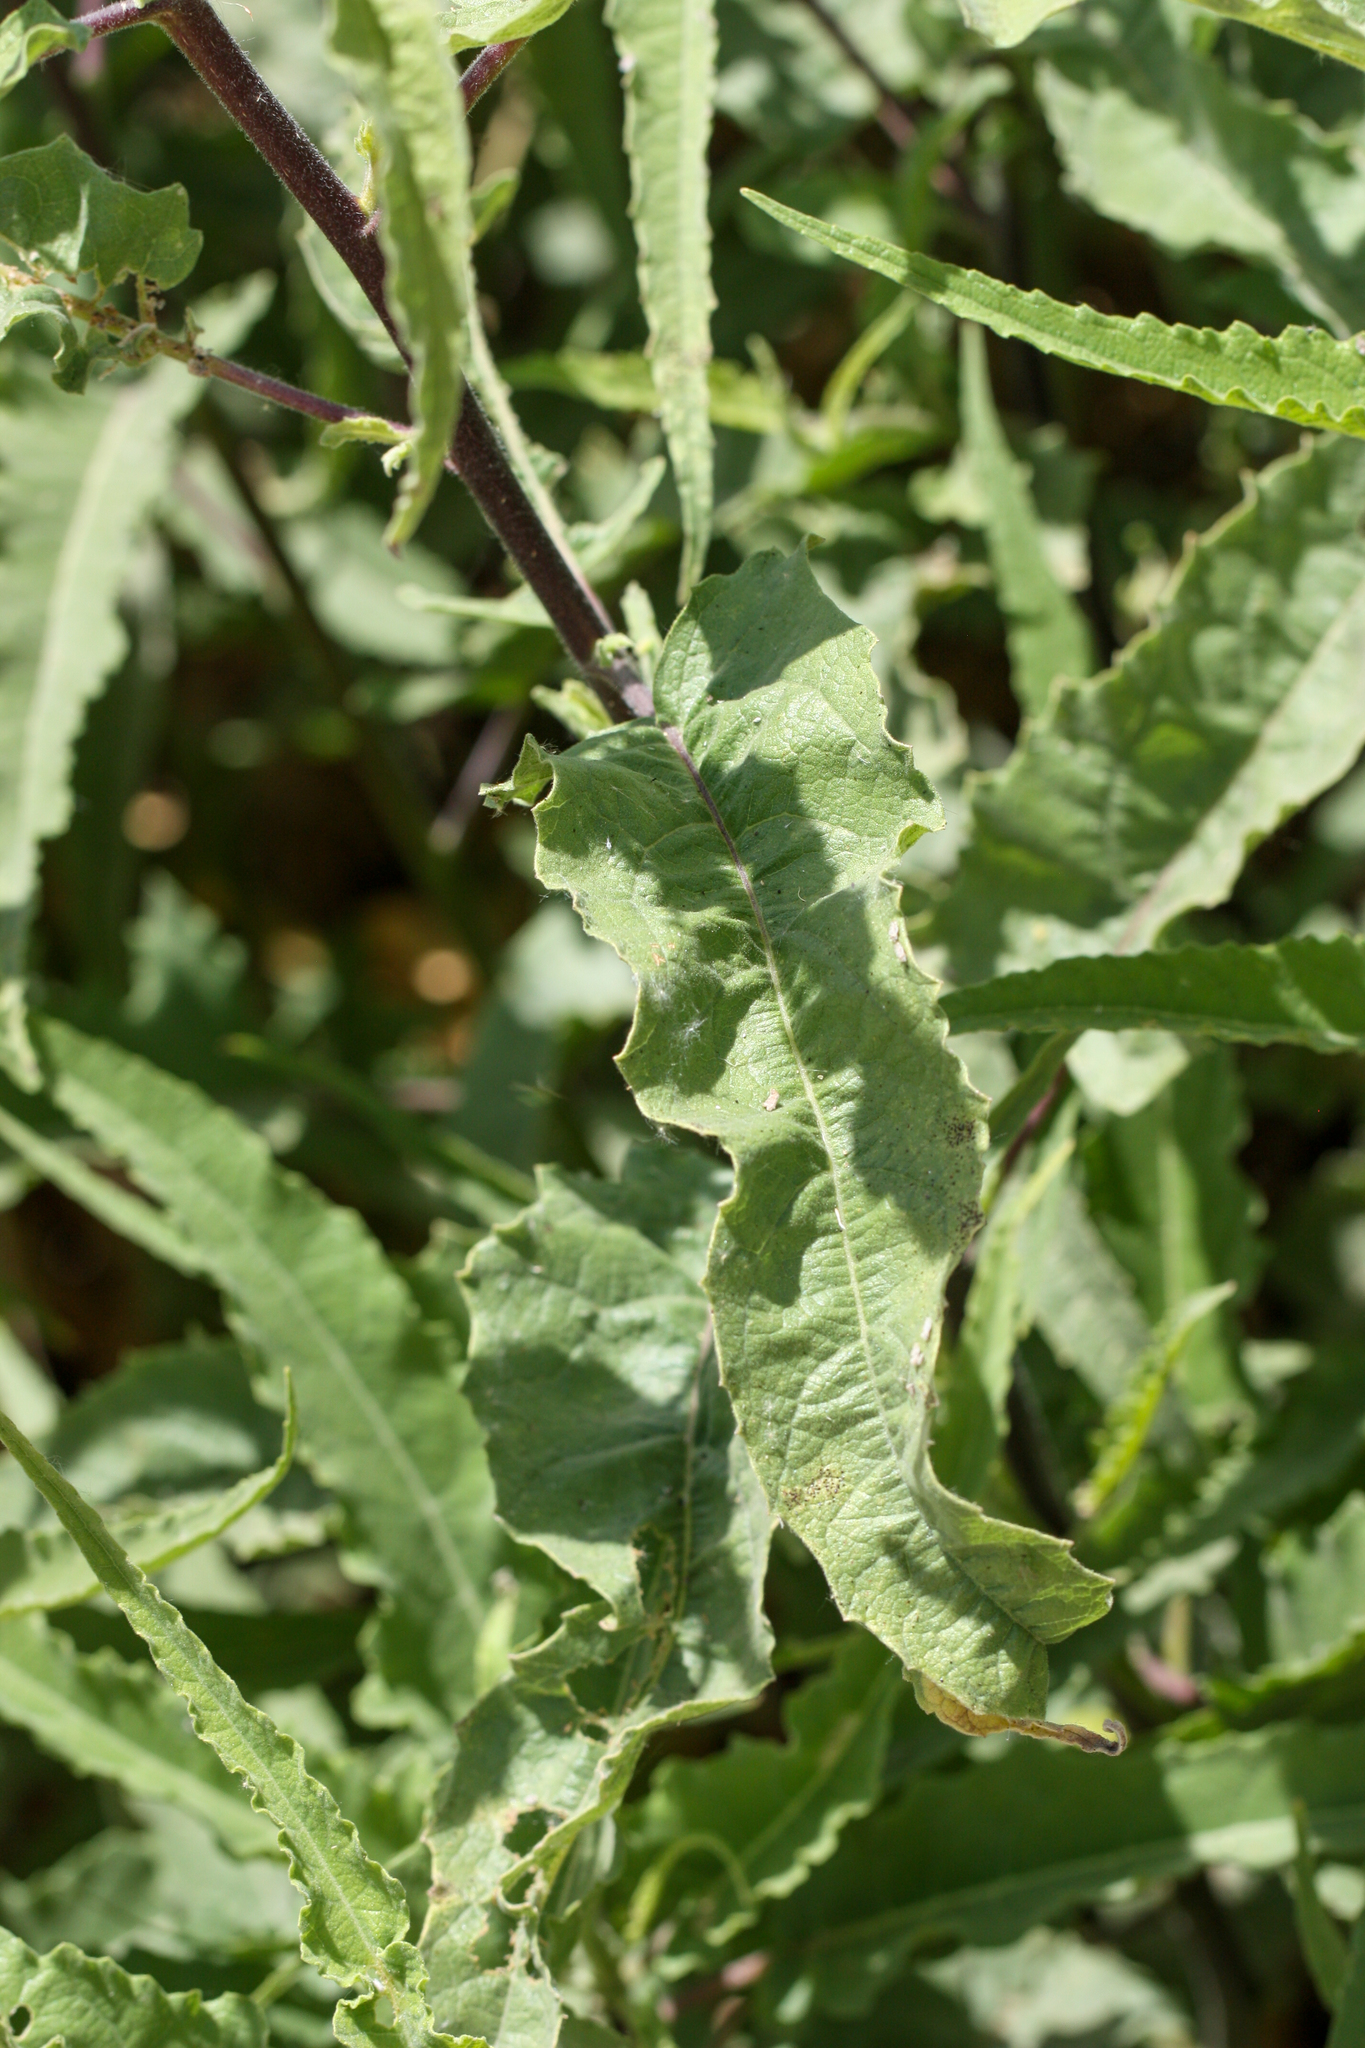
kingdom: Plantae
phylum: Tracheophyta
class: Magnoliopsida
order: Asterales
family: Asteraceae
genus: Ambrosia
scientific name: Ambrosia ambrosioides
